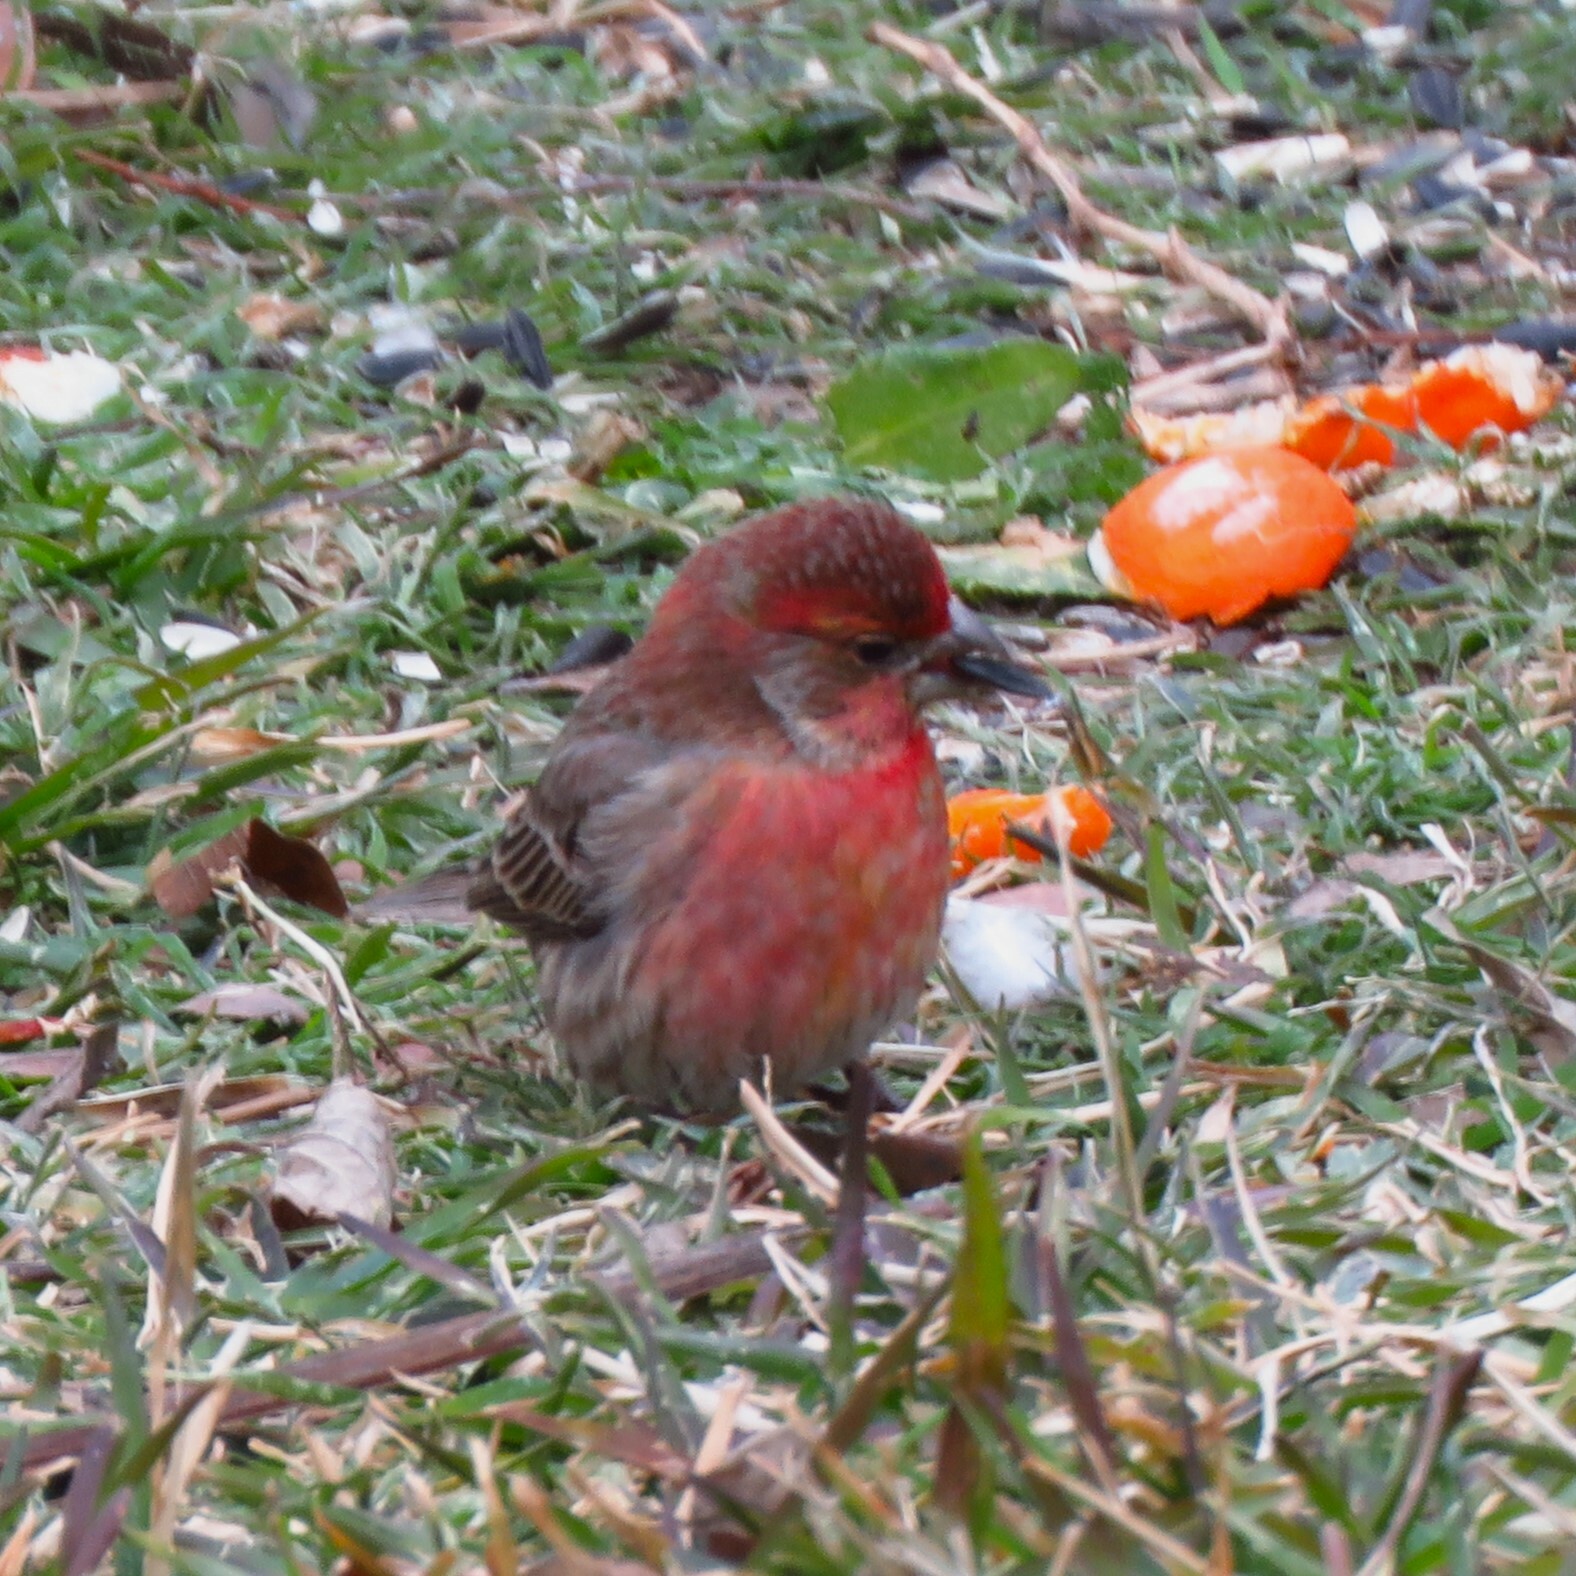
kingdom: Animalia
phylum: Chordata
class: Aves
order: Passeriformes
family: Fringillidae
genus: Haemorhous
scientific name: Haemorhous mexicanus
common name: House finch
